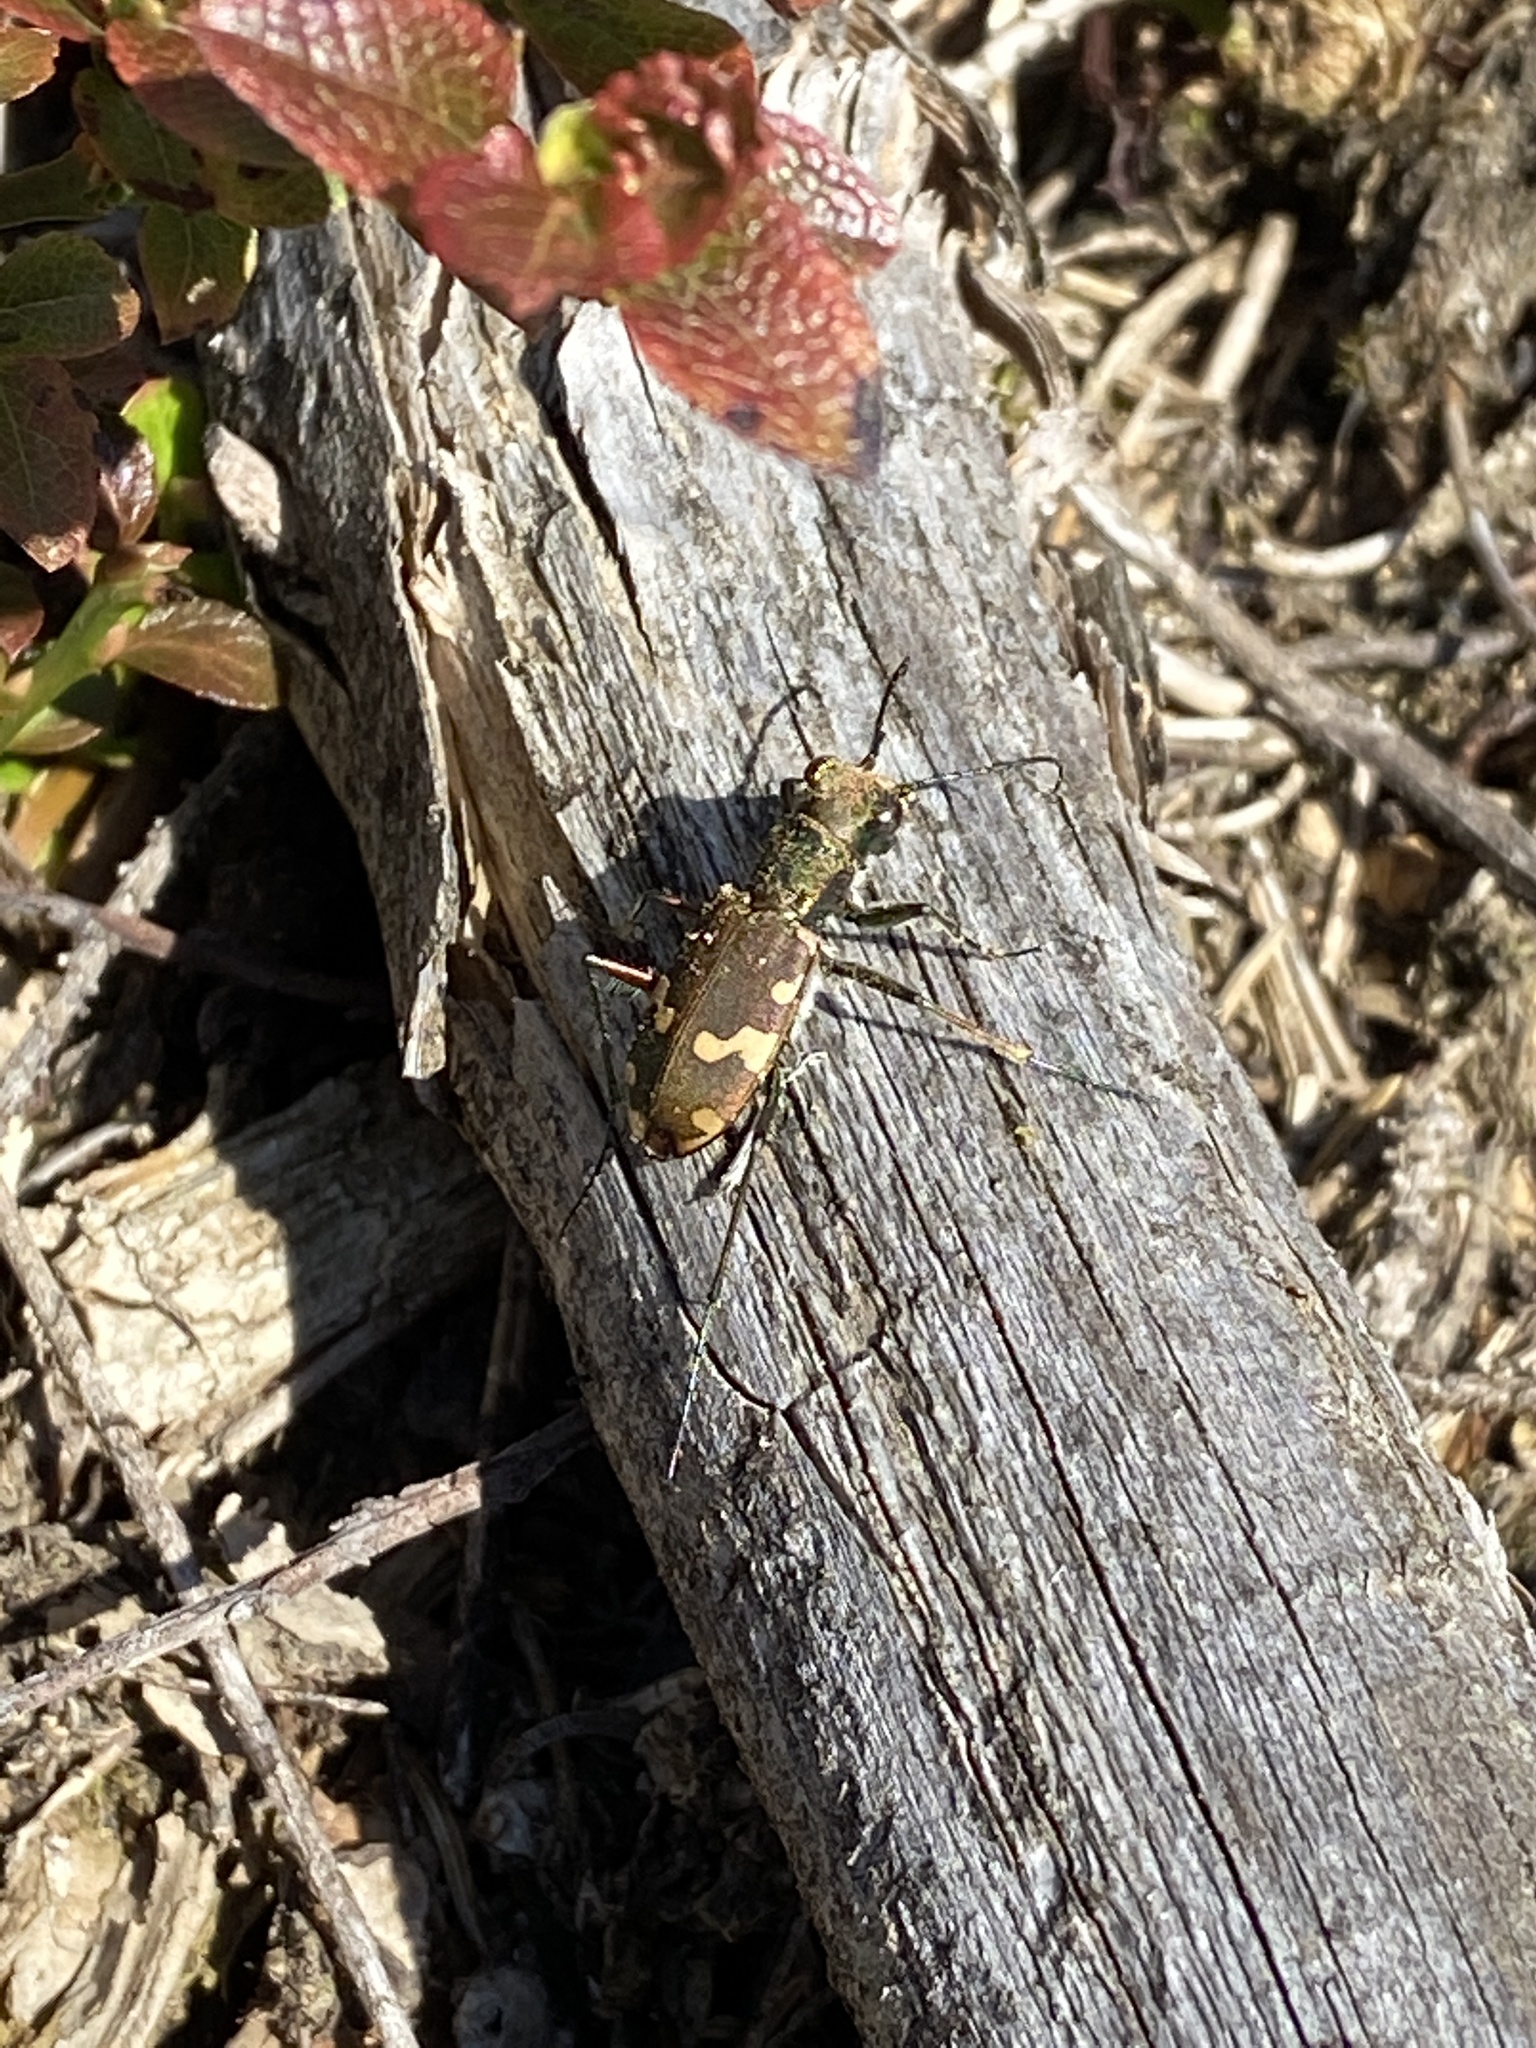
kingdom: Animalia
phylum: Arthropoda
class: Insecta
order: Coleoptera
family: Carabidae
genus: Cicindela
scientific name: Cicindela sylvicola
